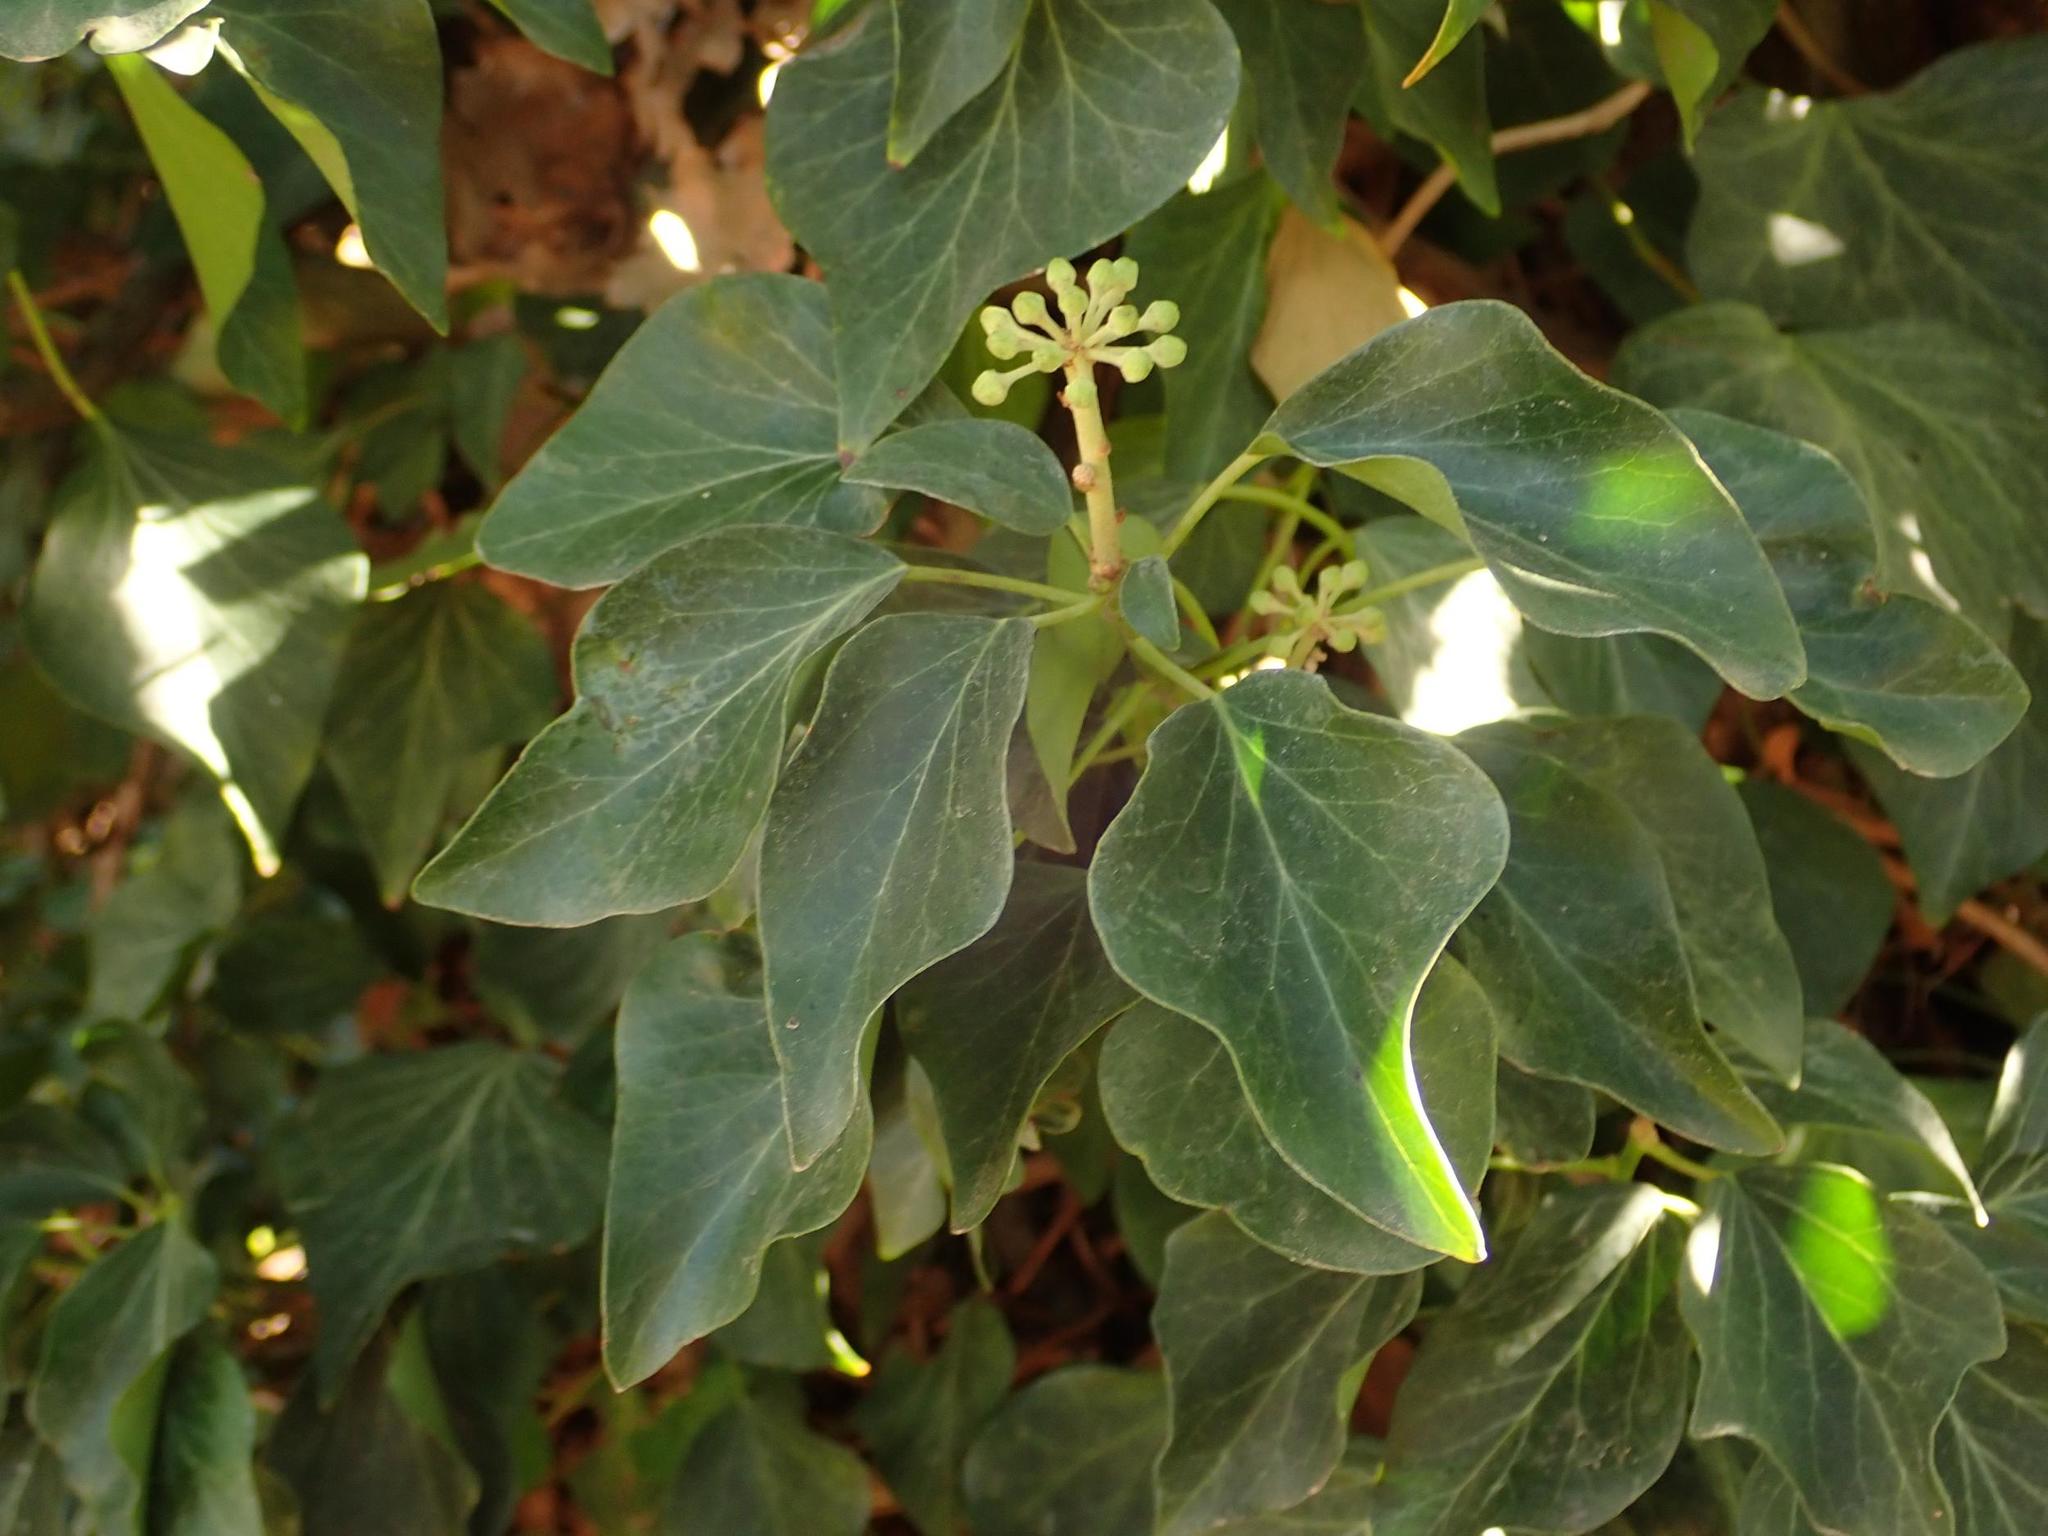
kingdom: Plantae
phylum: Tracheophyta
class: Magnoliopsida
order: Apiales
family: Araliaceae
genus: Hedera
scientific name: Hedera helix
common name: Ivy
